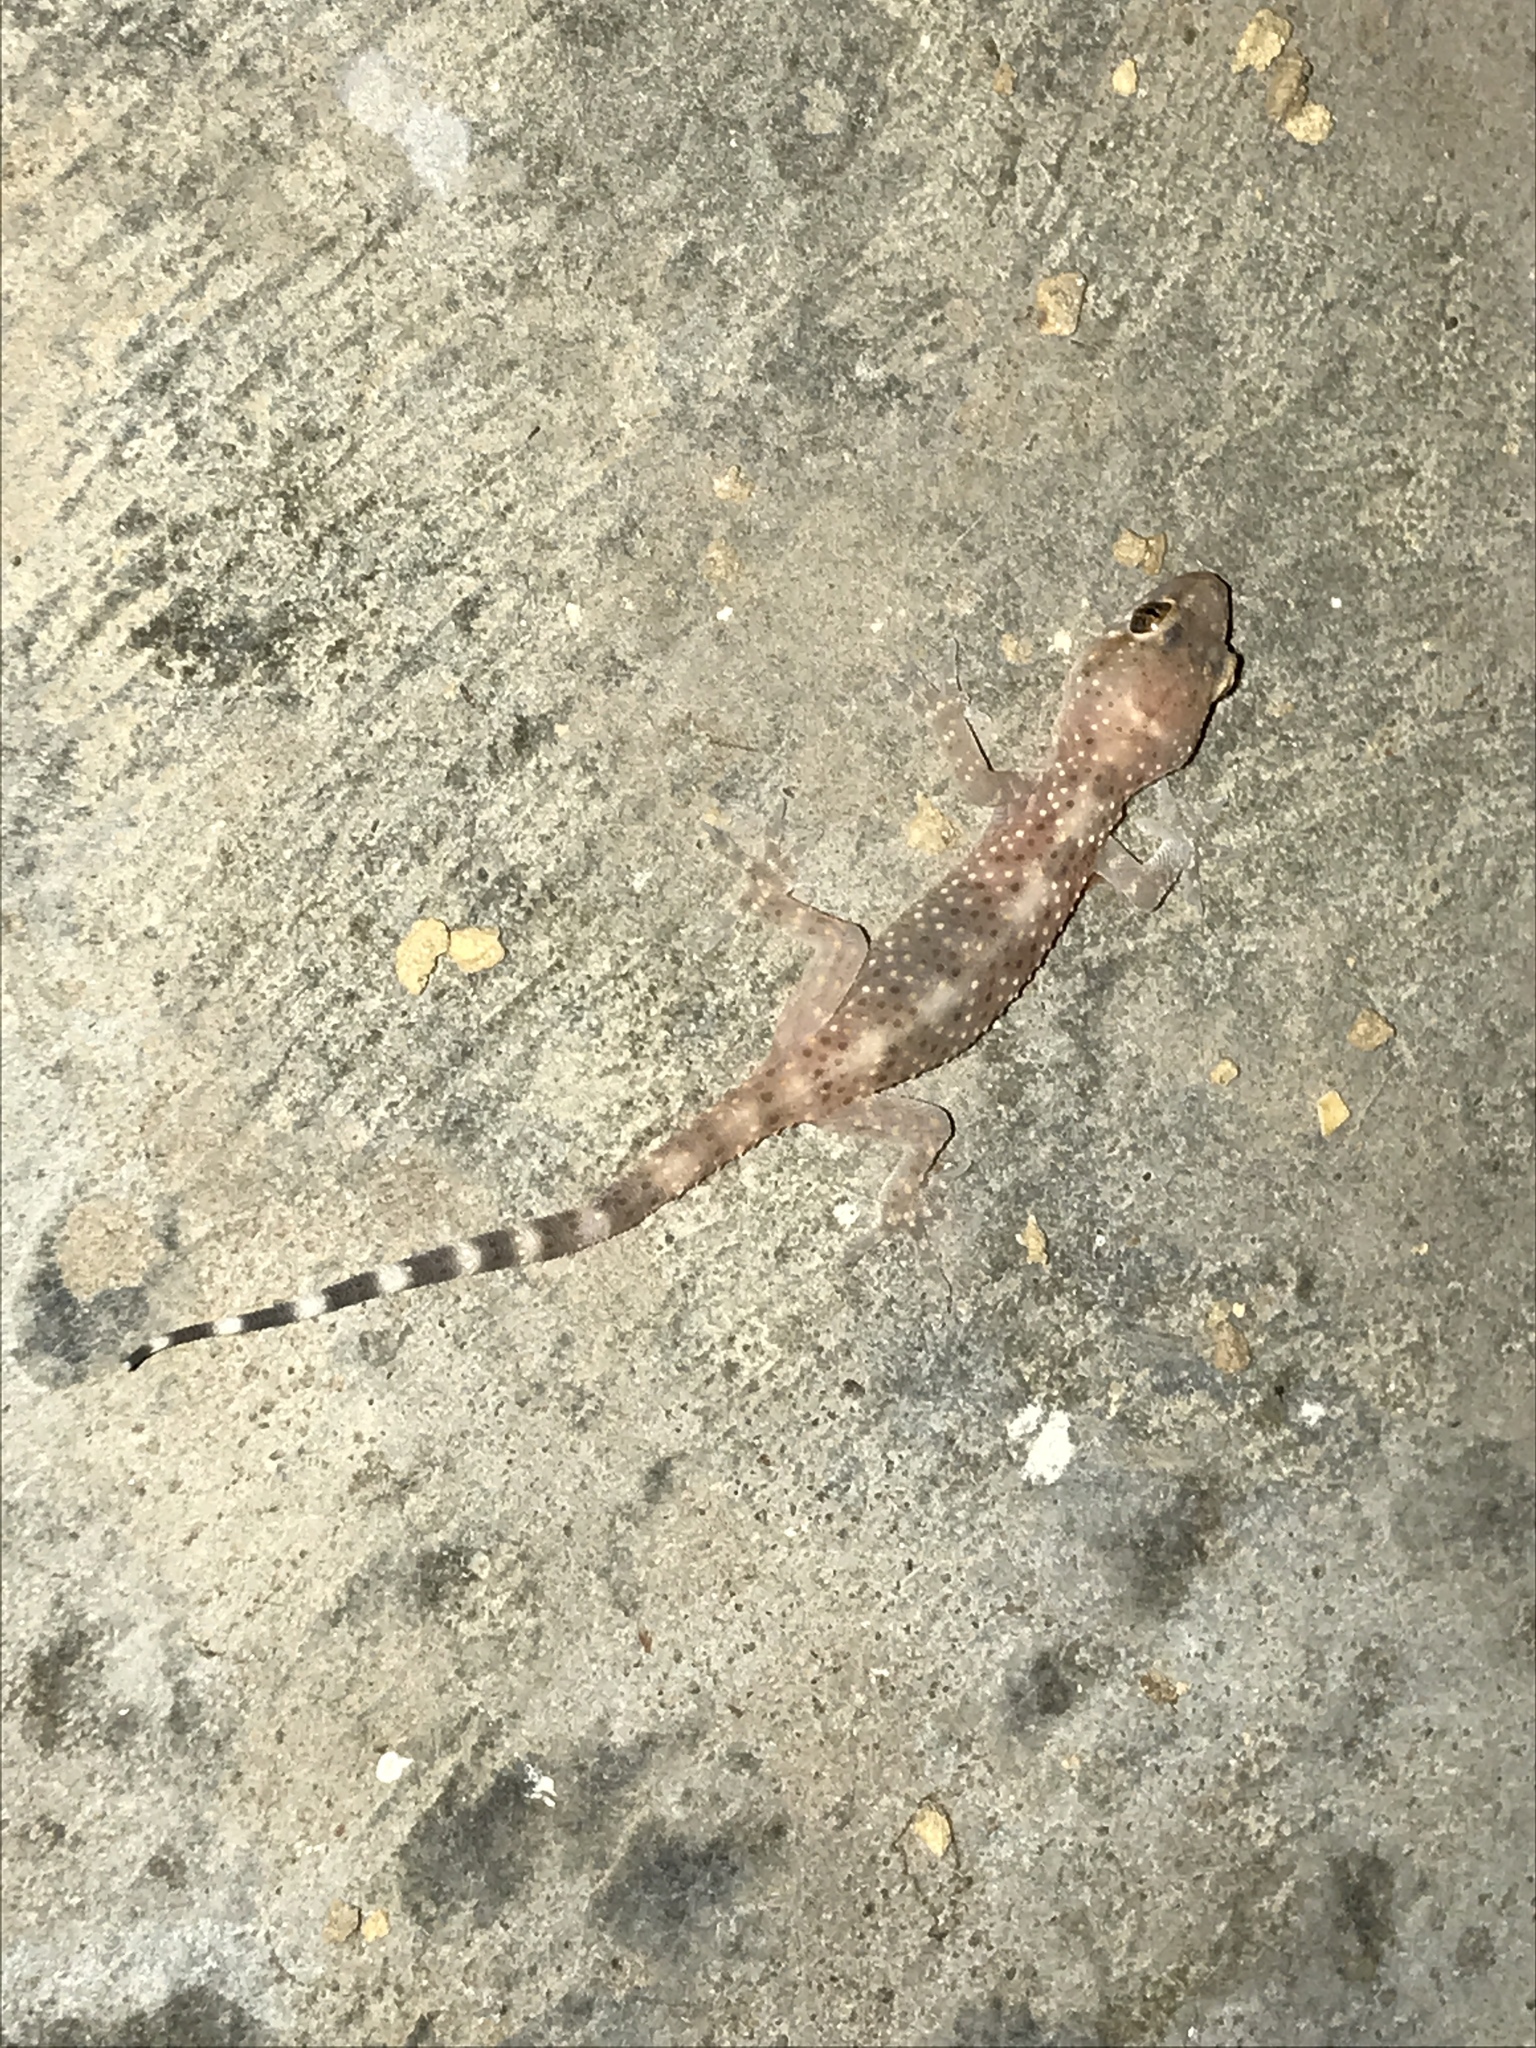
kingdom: Animalia
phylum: Chordata
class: Squamata
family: Gekkonidae
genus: Hemidactylus
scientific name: Hemidactylus turcicus
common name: Turkish gecko
